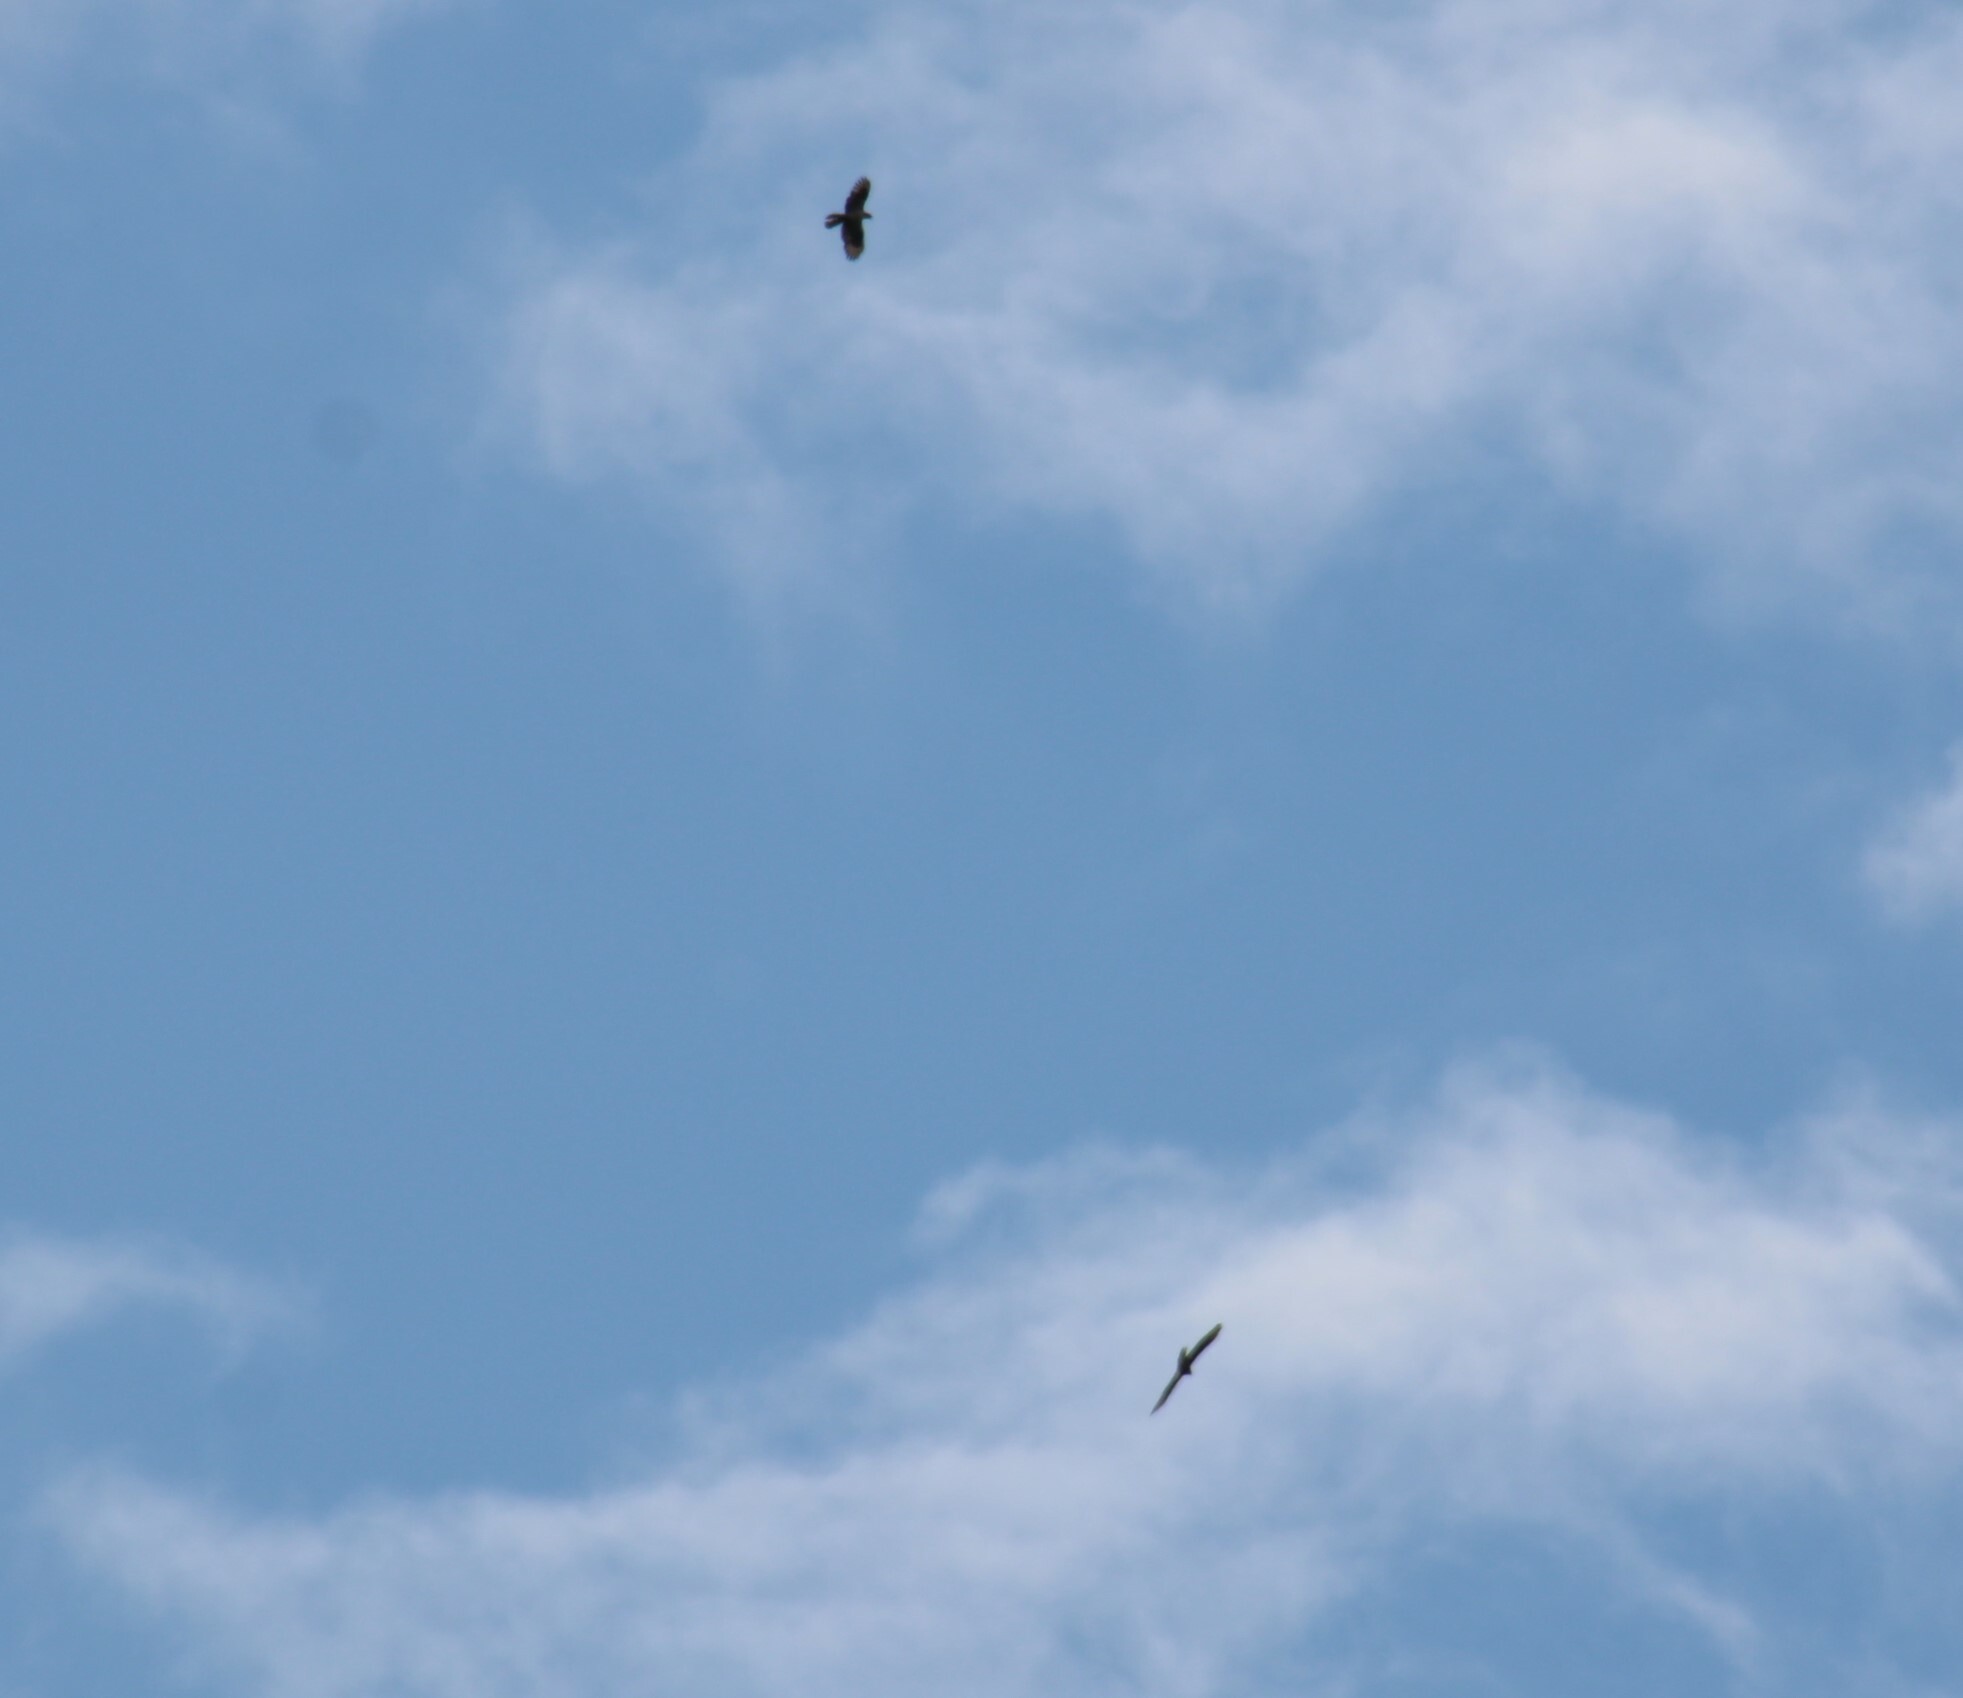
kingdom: Animalia
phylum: Chordata
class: Aves
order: Accipitriformes
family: Accipitridae
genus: Pernis
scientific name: Pernis apivorus
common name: European honey buzzard
